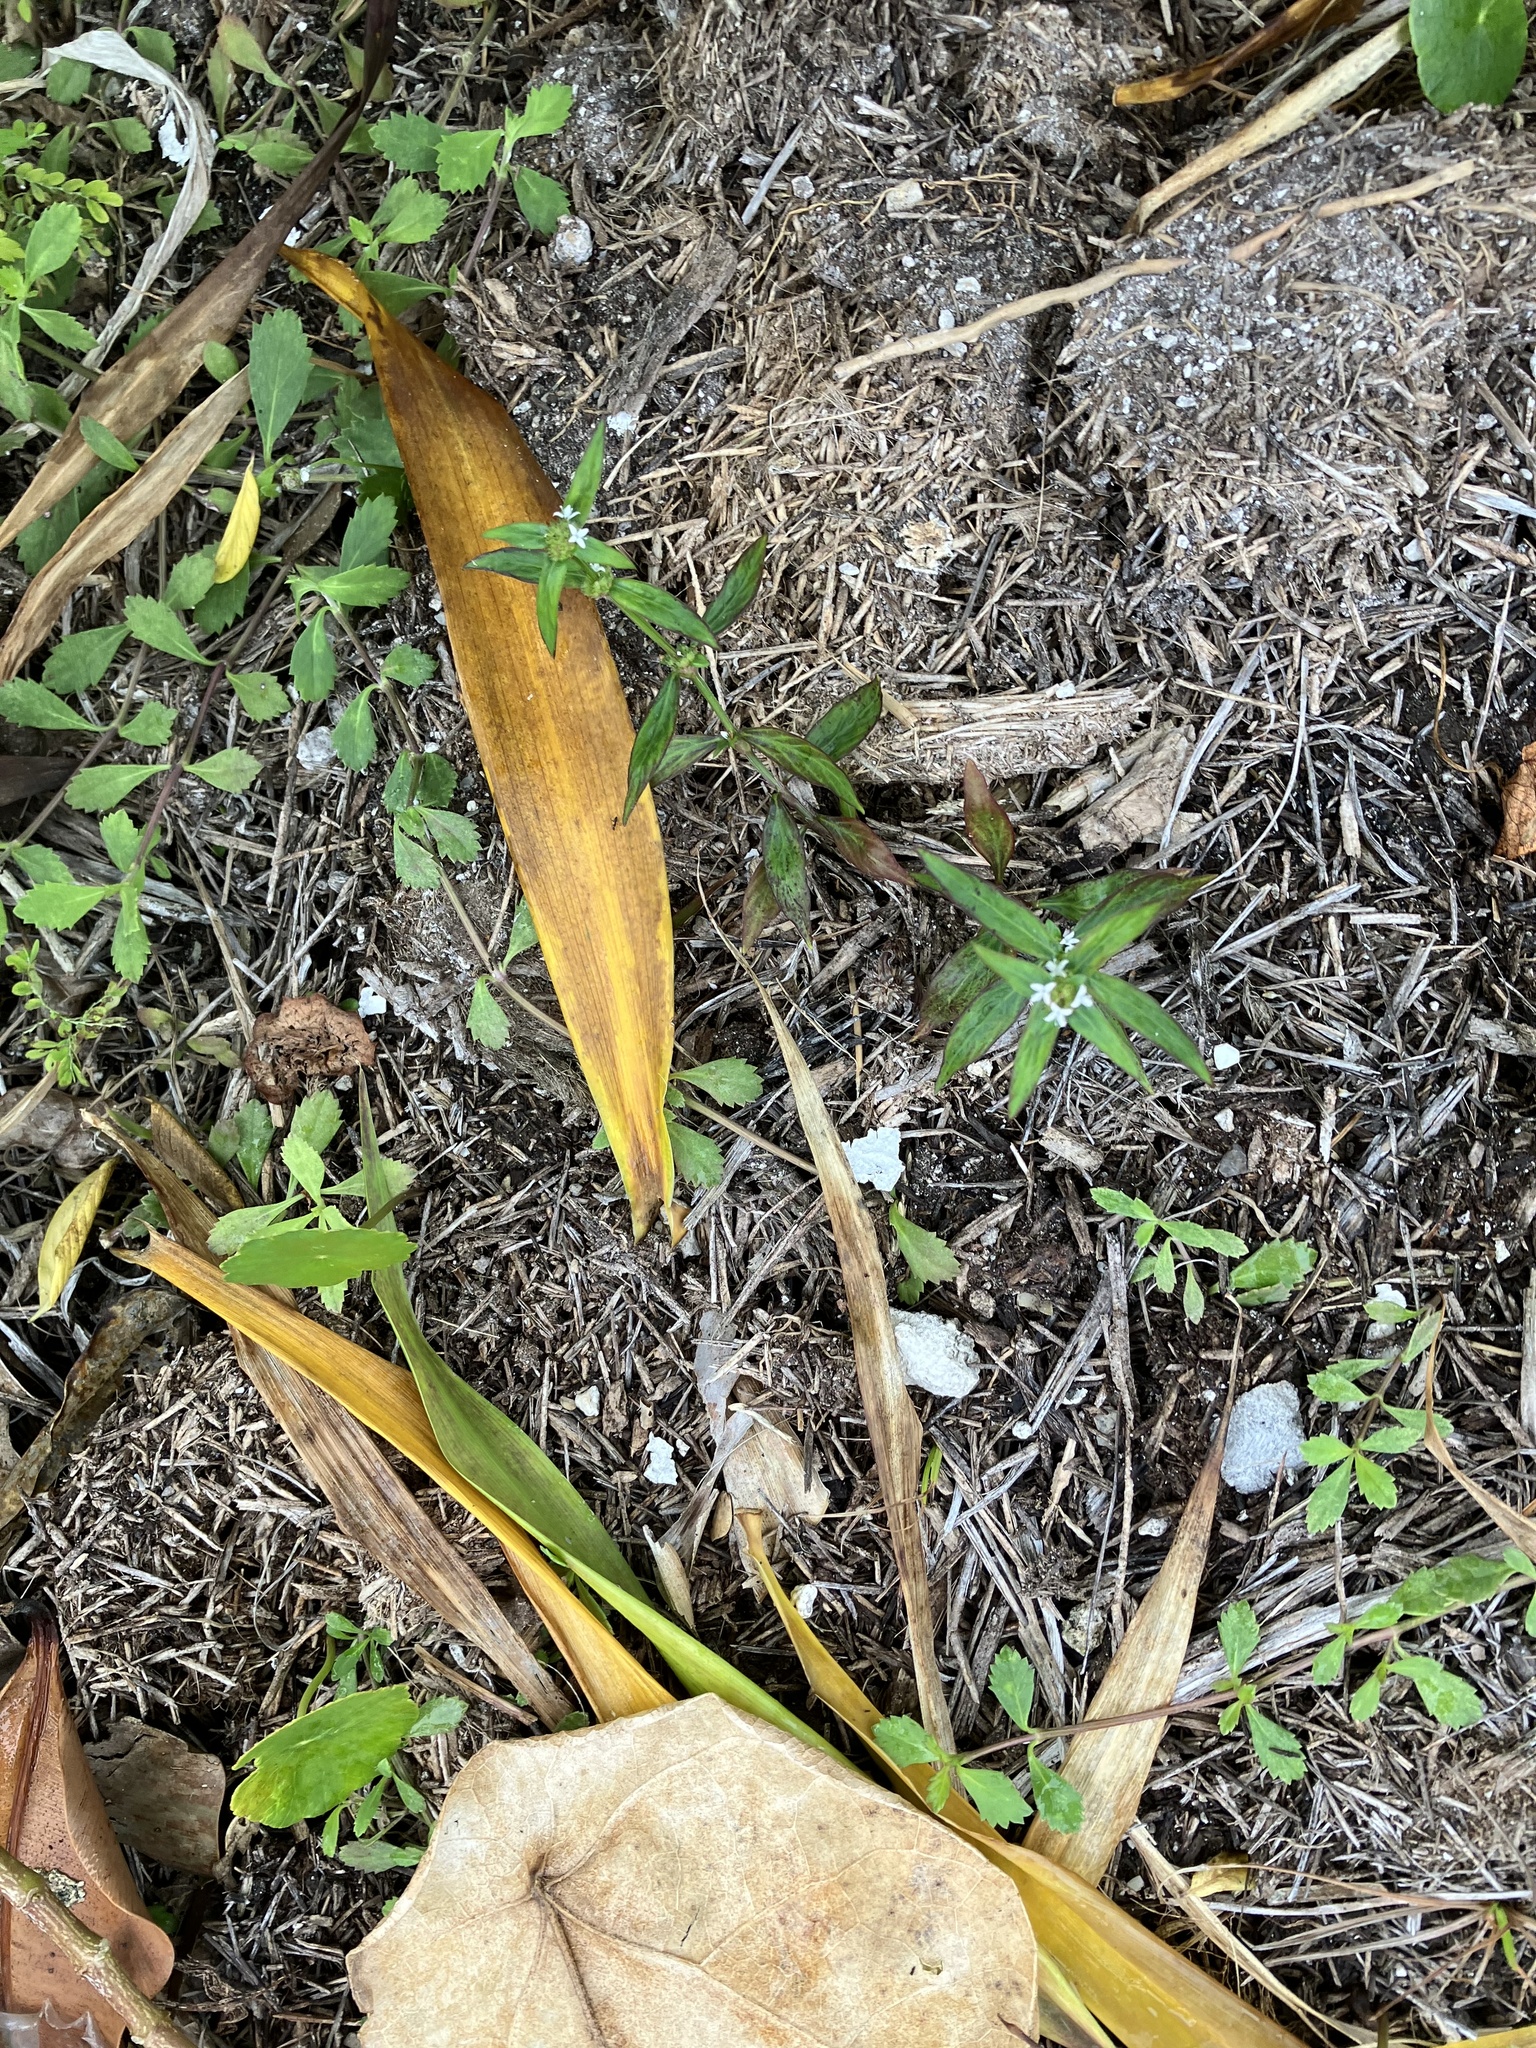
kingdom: Plantae
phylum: Tracheophyta
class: Magnoliopsida
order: Gentianales
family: Rubiaceae
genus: Spermacoce
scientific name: Spermacoce remota
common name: Woodland false buttonweed
